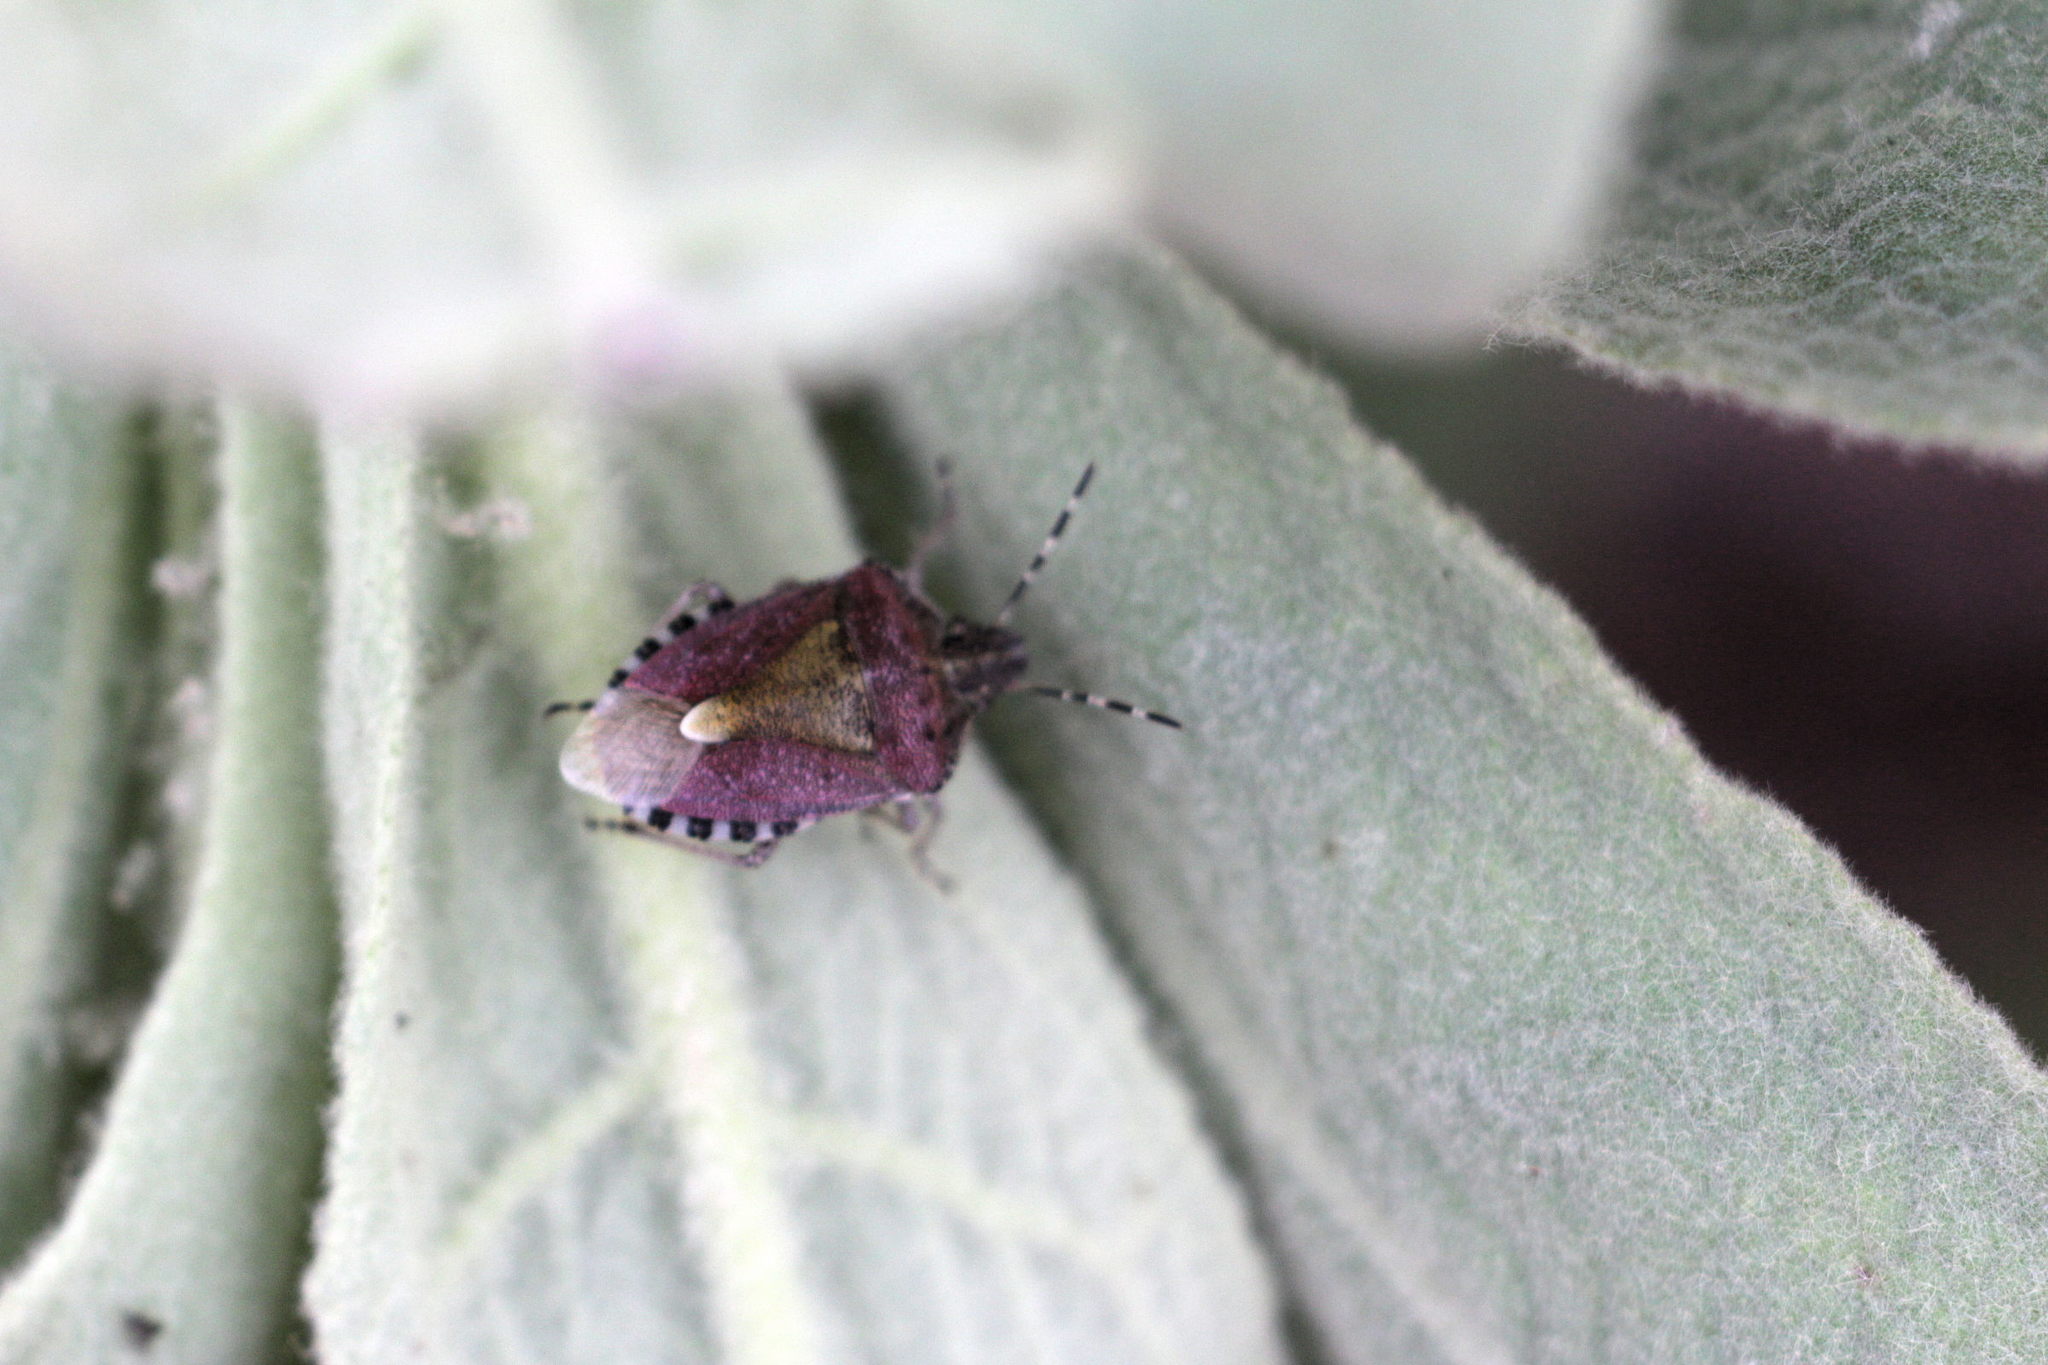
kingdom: Animalia
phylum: Arthropoda
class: Insecta
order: Hemiptera
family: Pentatomidae
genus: Dolycoris
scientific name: Dolycoris baccarum
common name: Sloe bug
